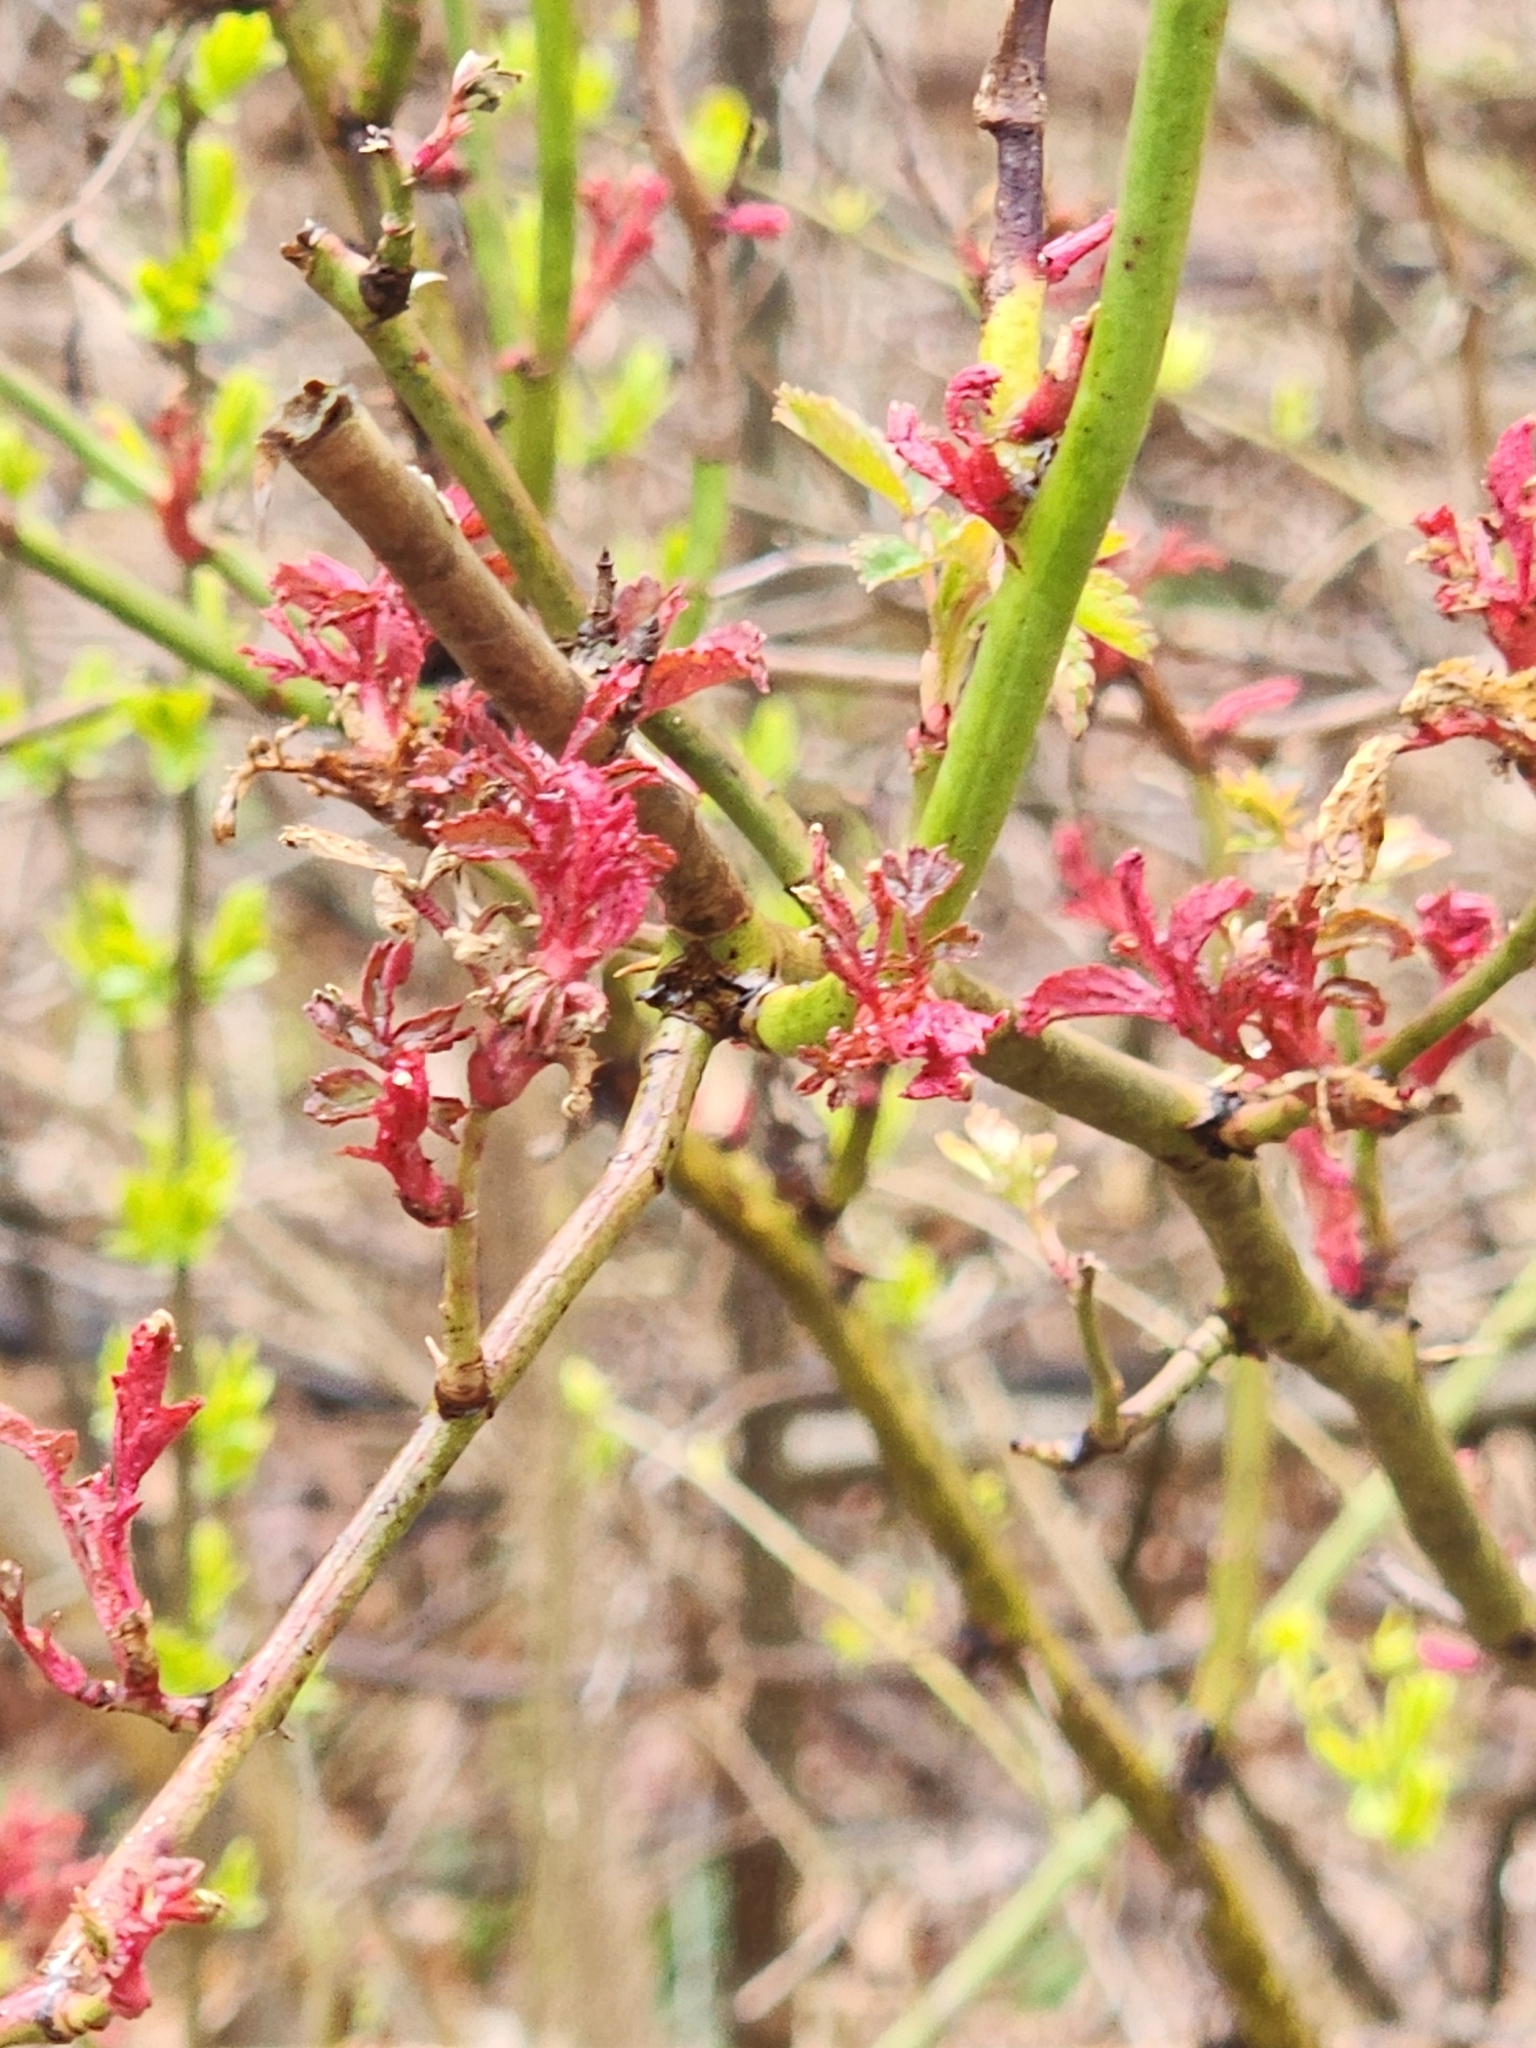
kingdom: Plantae
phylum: Tracheophyta
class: Magnoliopsida
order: Rosales
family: Rosaceae
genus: Rosa
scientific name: Rosa multiflora
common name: Multiflora rose
